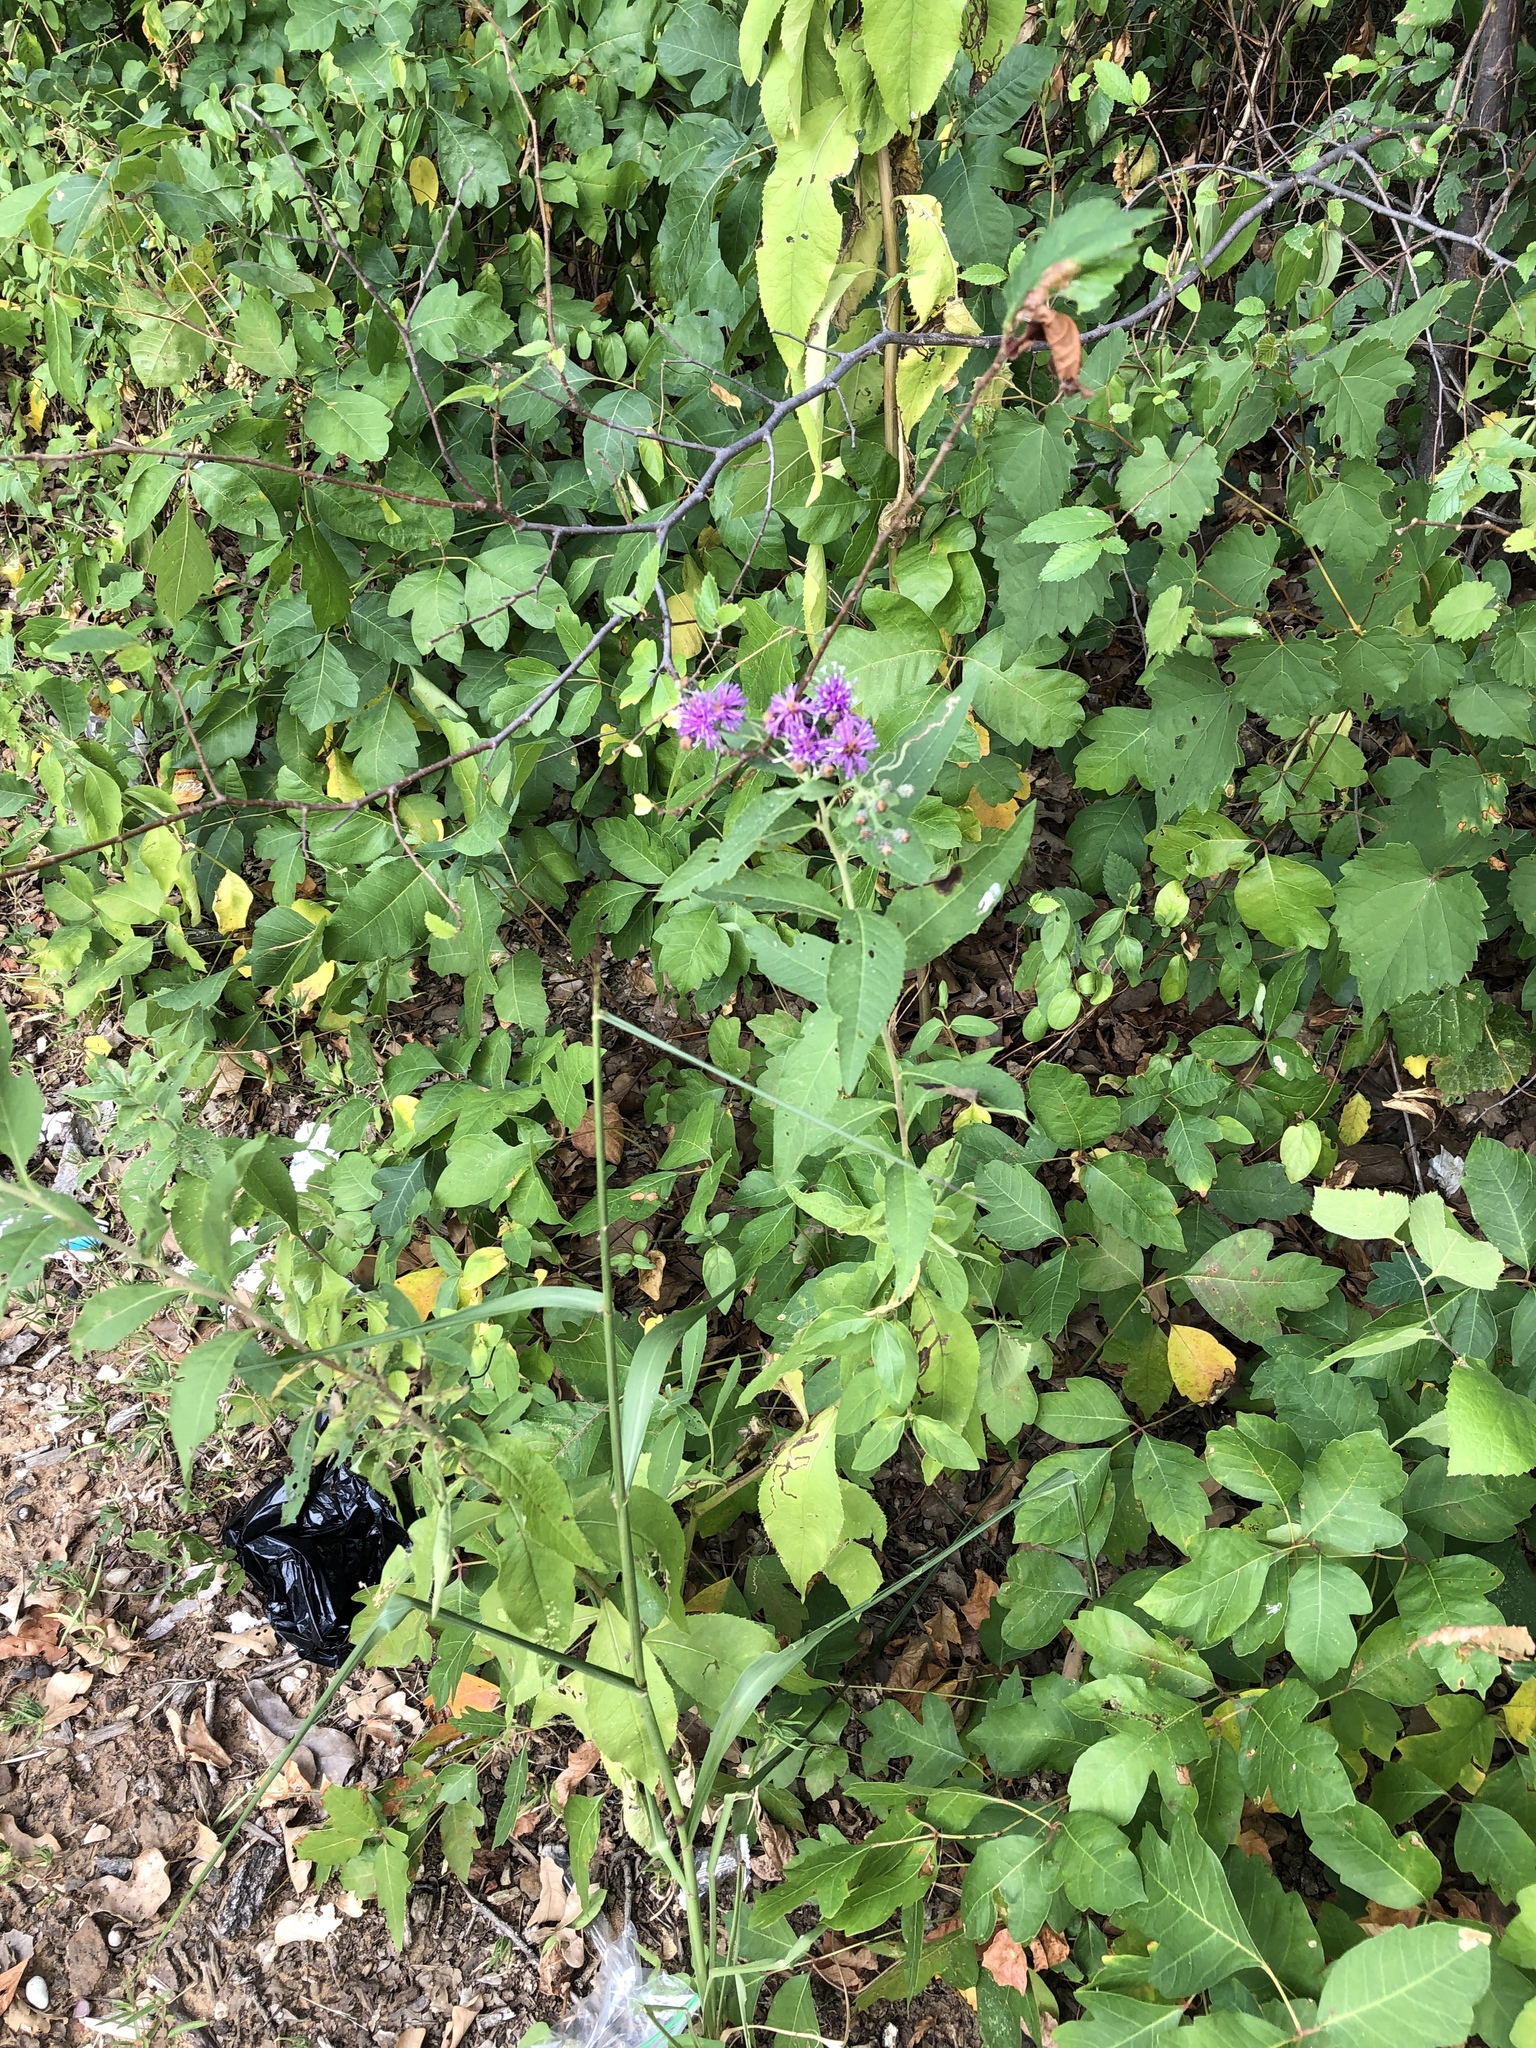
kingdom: Plantae
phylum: Tracheophyta
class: Magnoliopsida
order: Asterales
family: Asteraceae
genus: Vernonia
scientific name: Vernonia baldwinii
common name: Western ironweed
